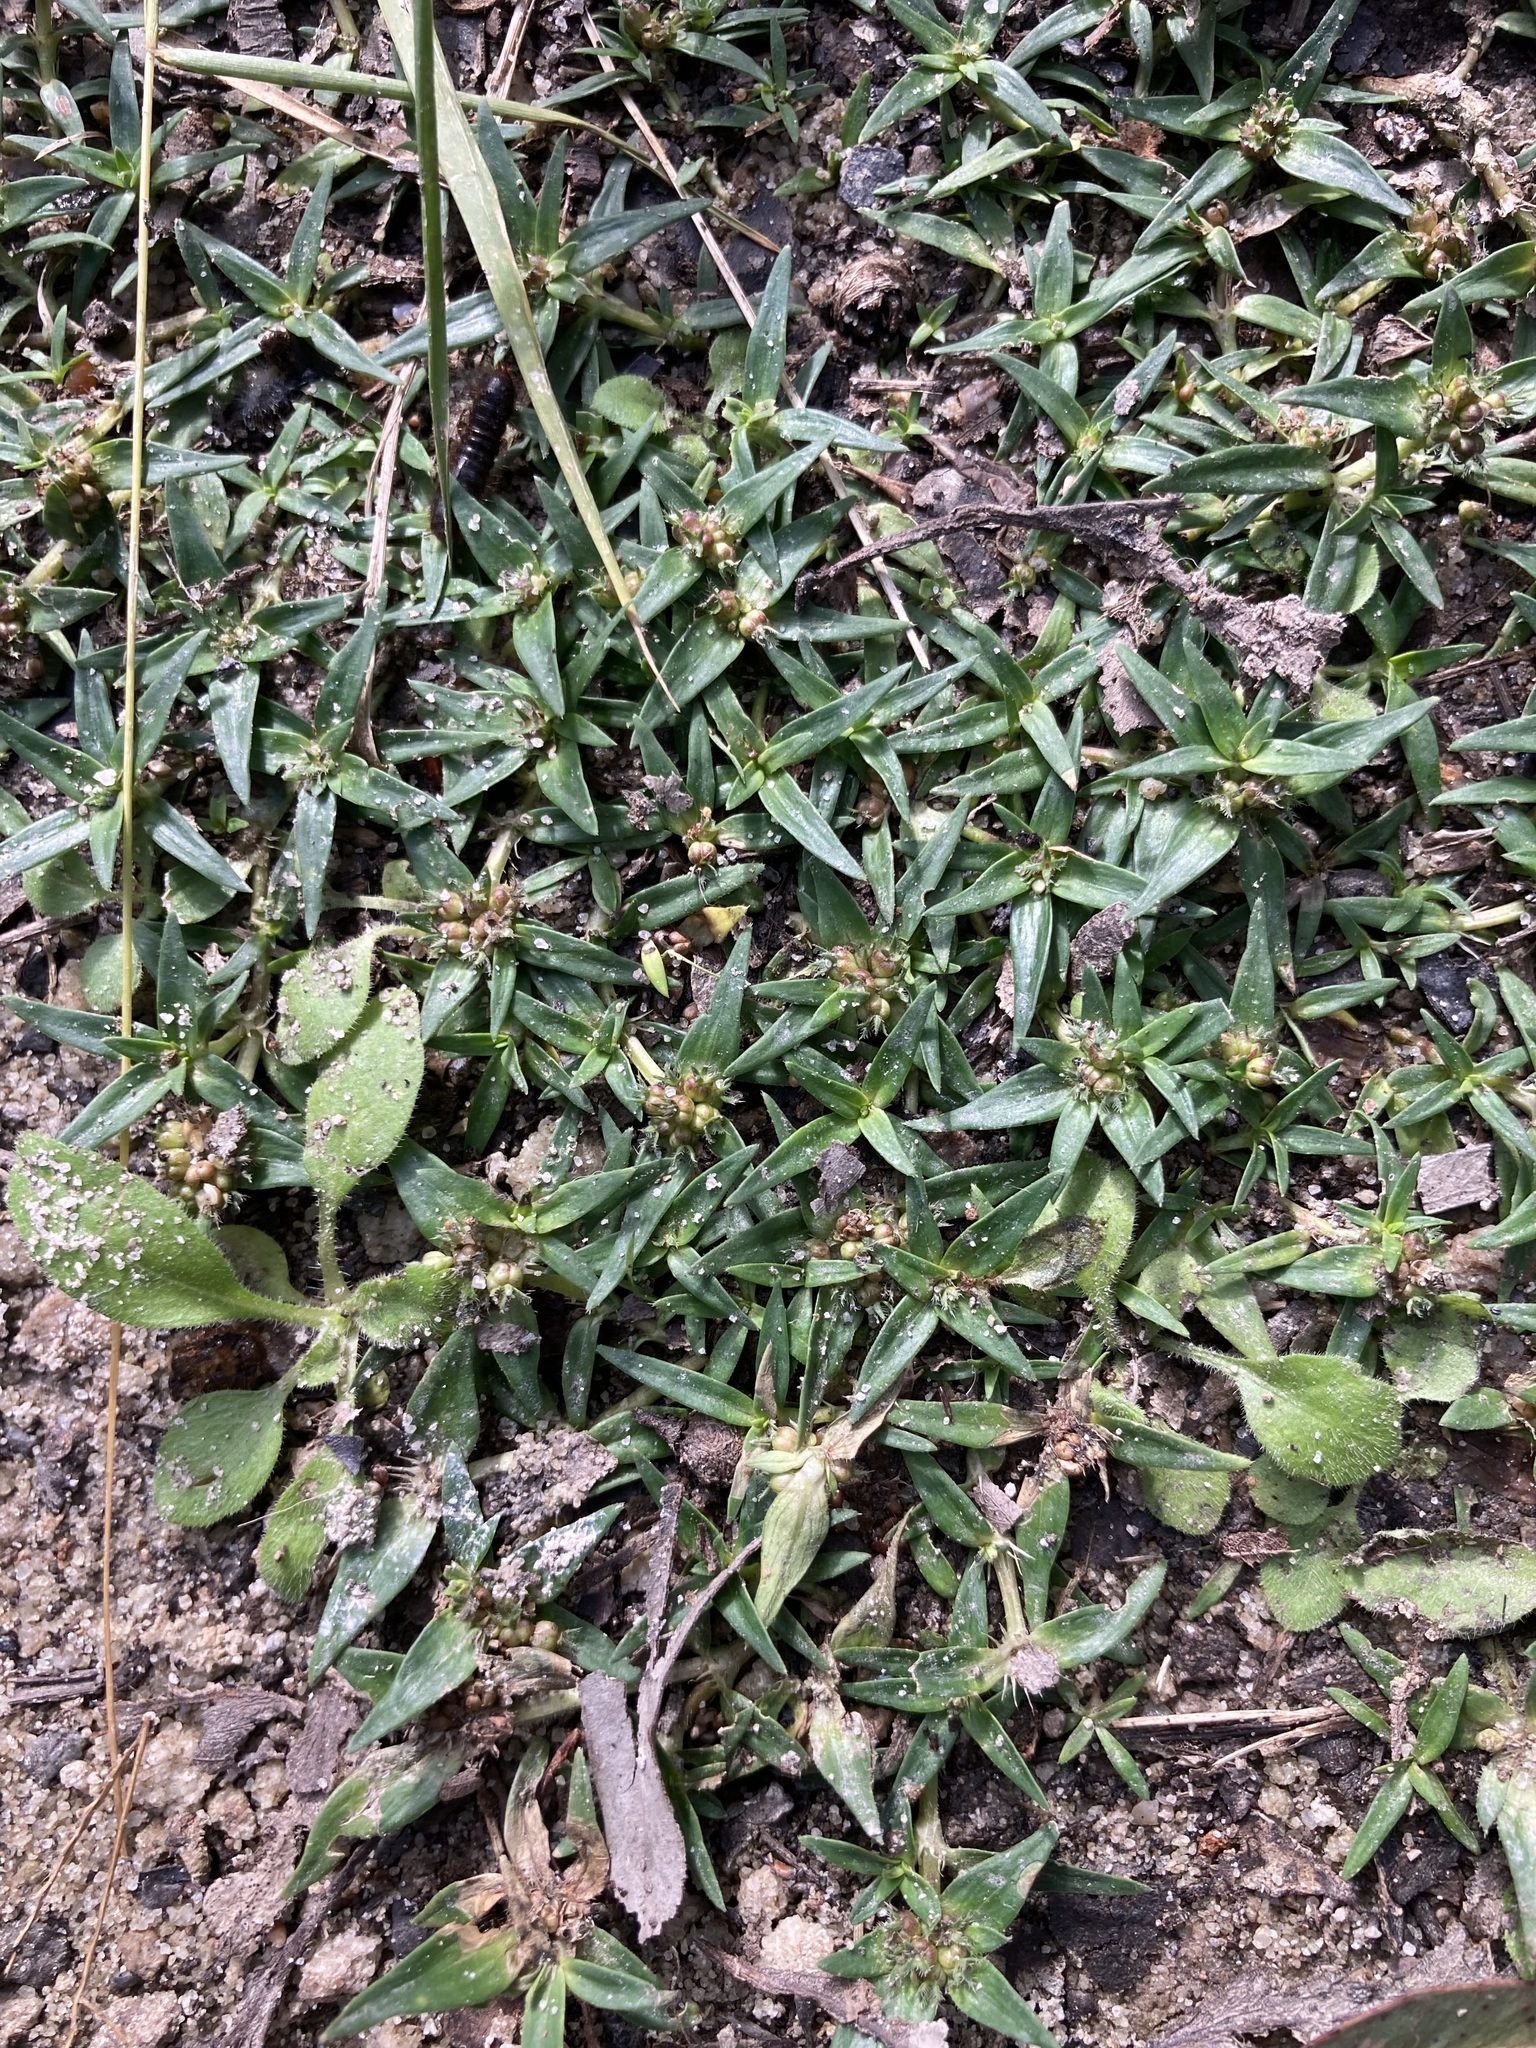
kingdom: Plantae
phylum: Tracheophyta
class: Magnoliopsida
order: Gentianales
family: Rubiaceae
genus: Richardia
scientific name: Richardia stellaris
